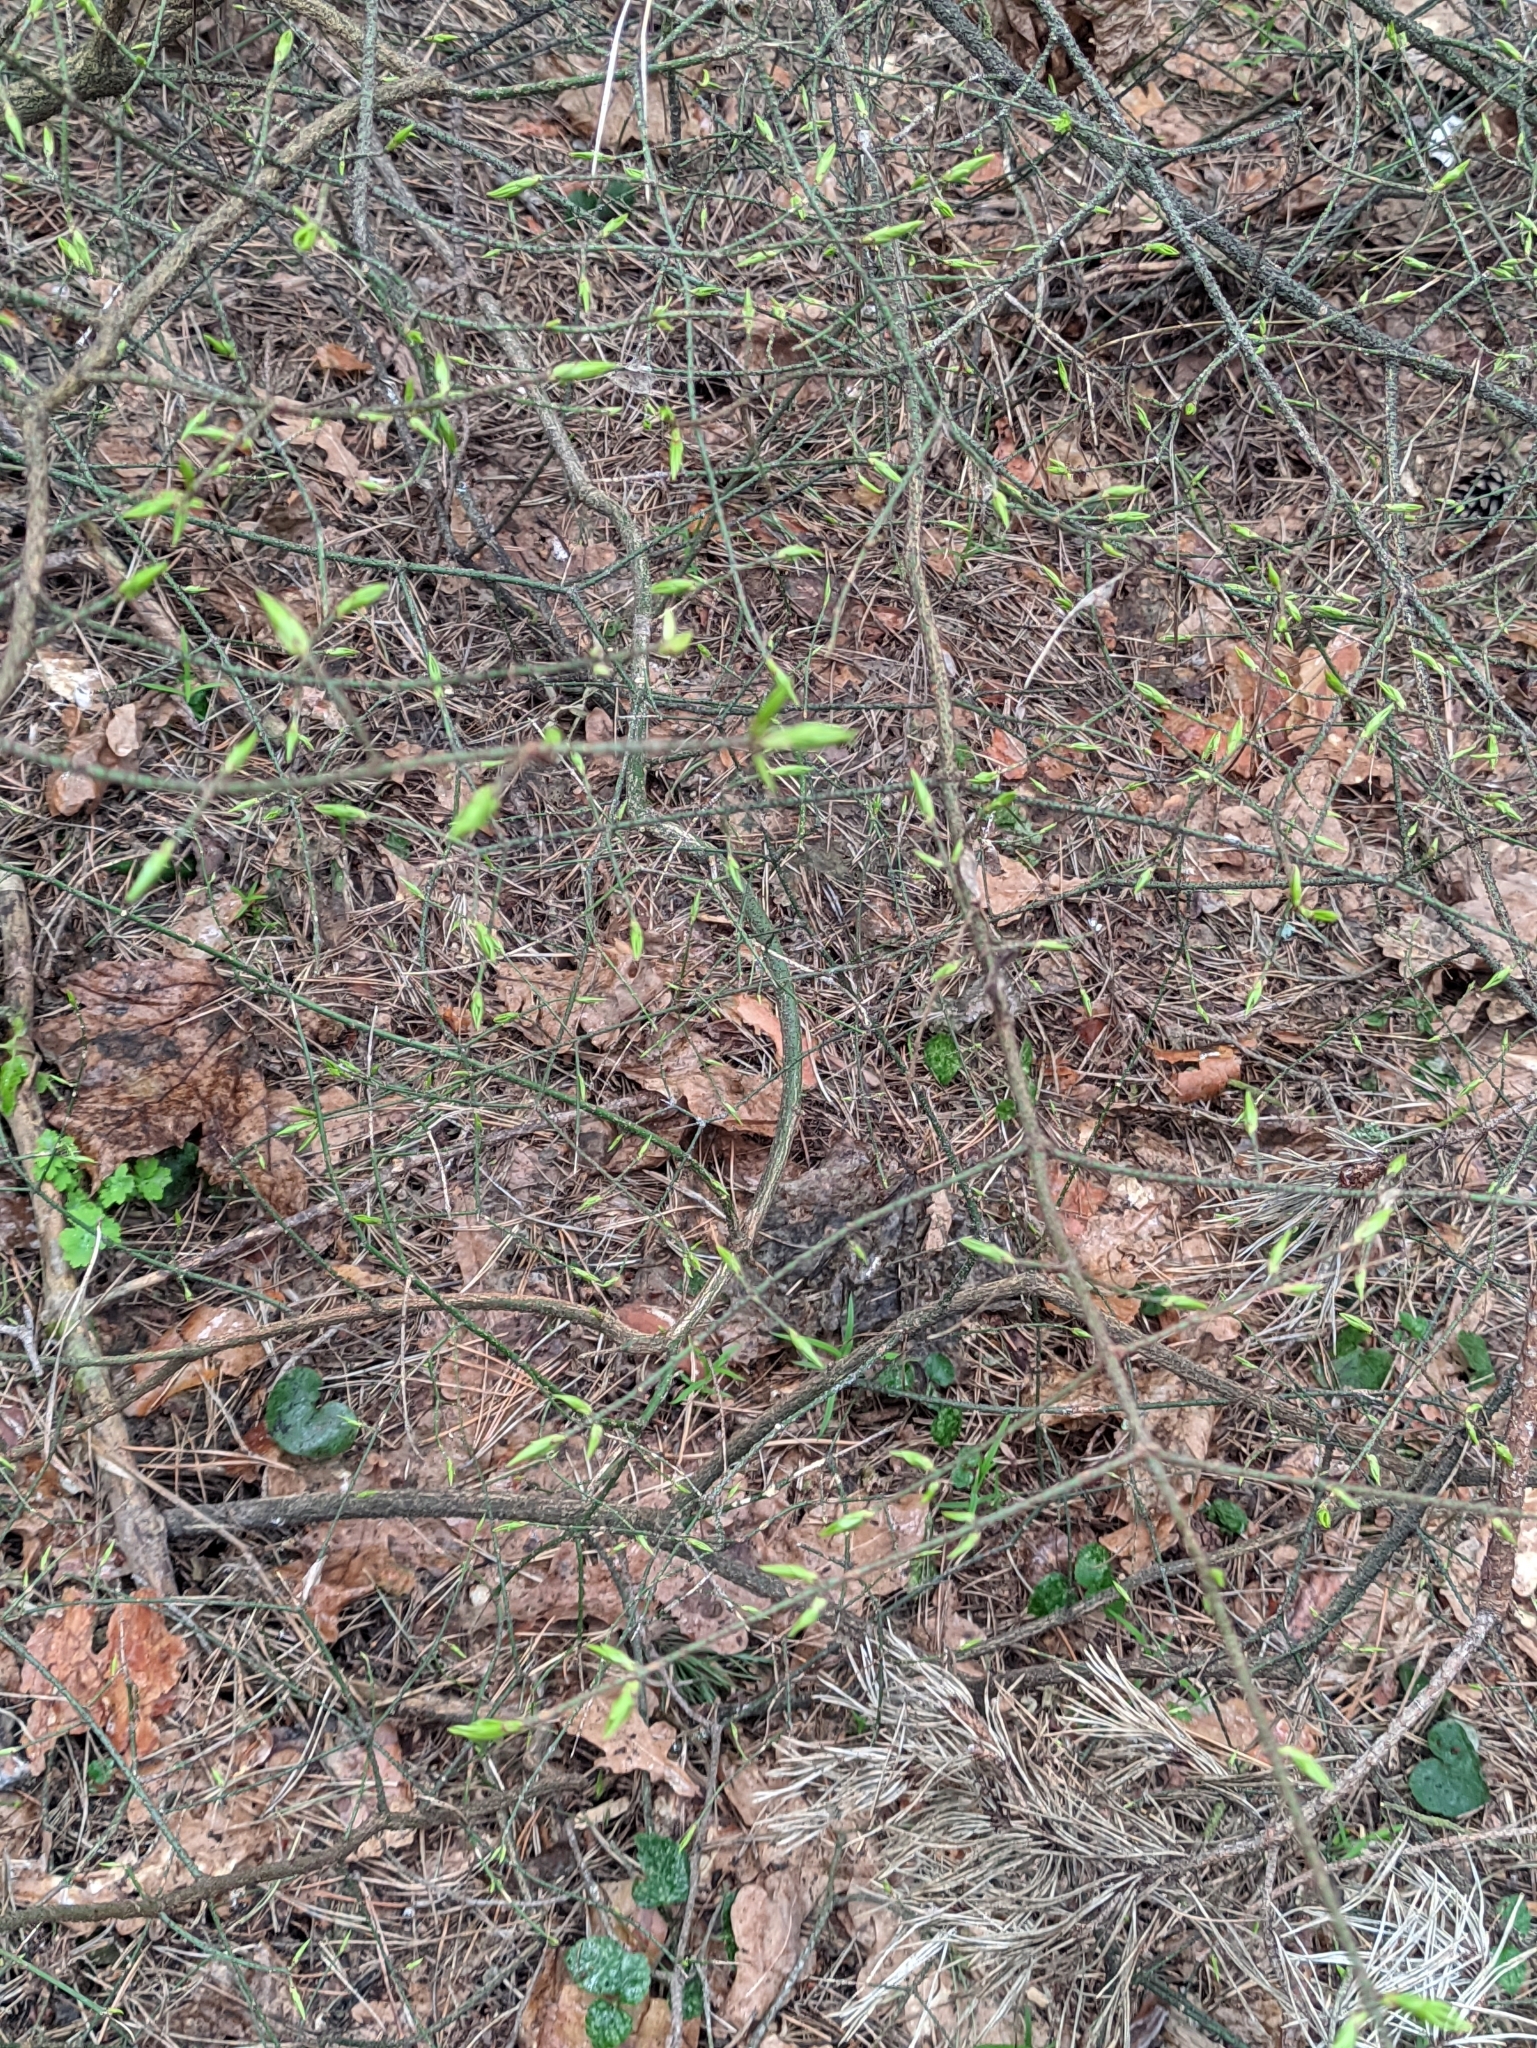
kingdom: Plantae
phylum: Tracheophyta
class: Magnoliopsida
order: Celastrales
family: Celastraceae
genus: Euonymus
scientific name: Euonymus verrucosus
